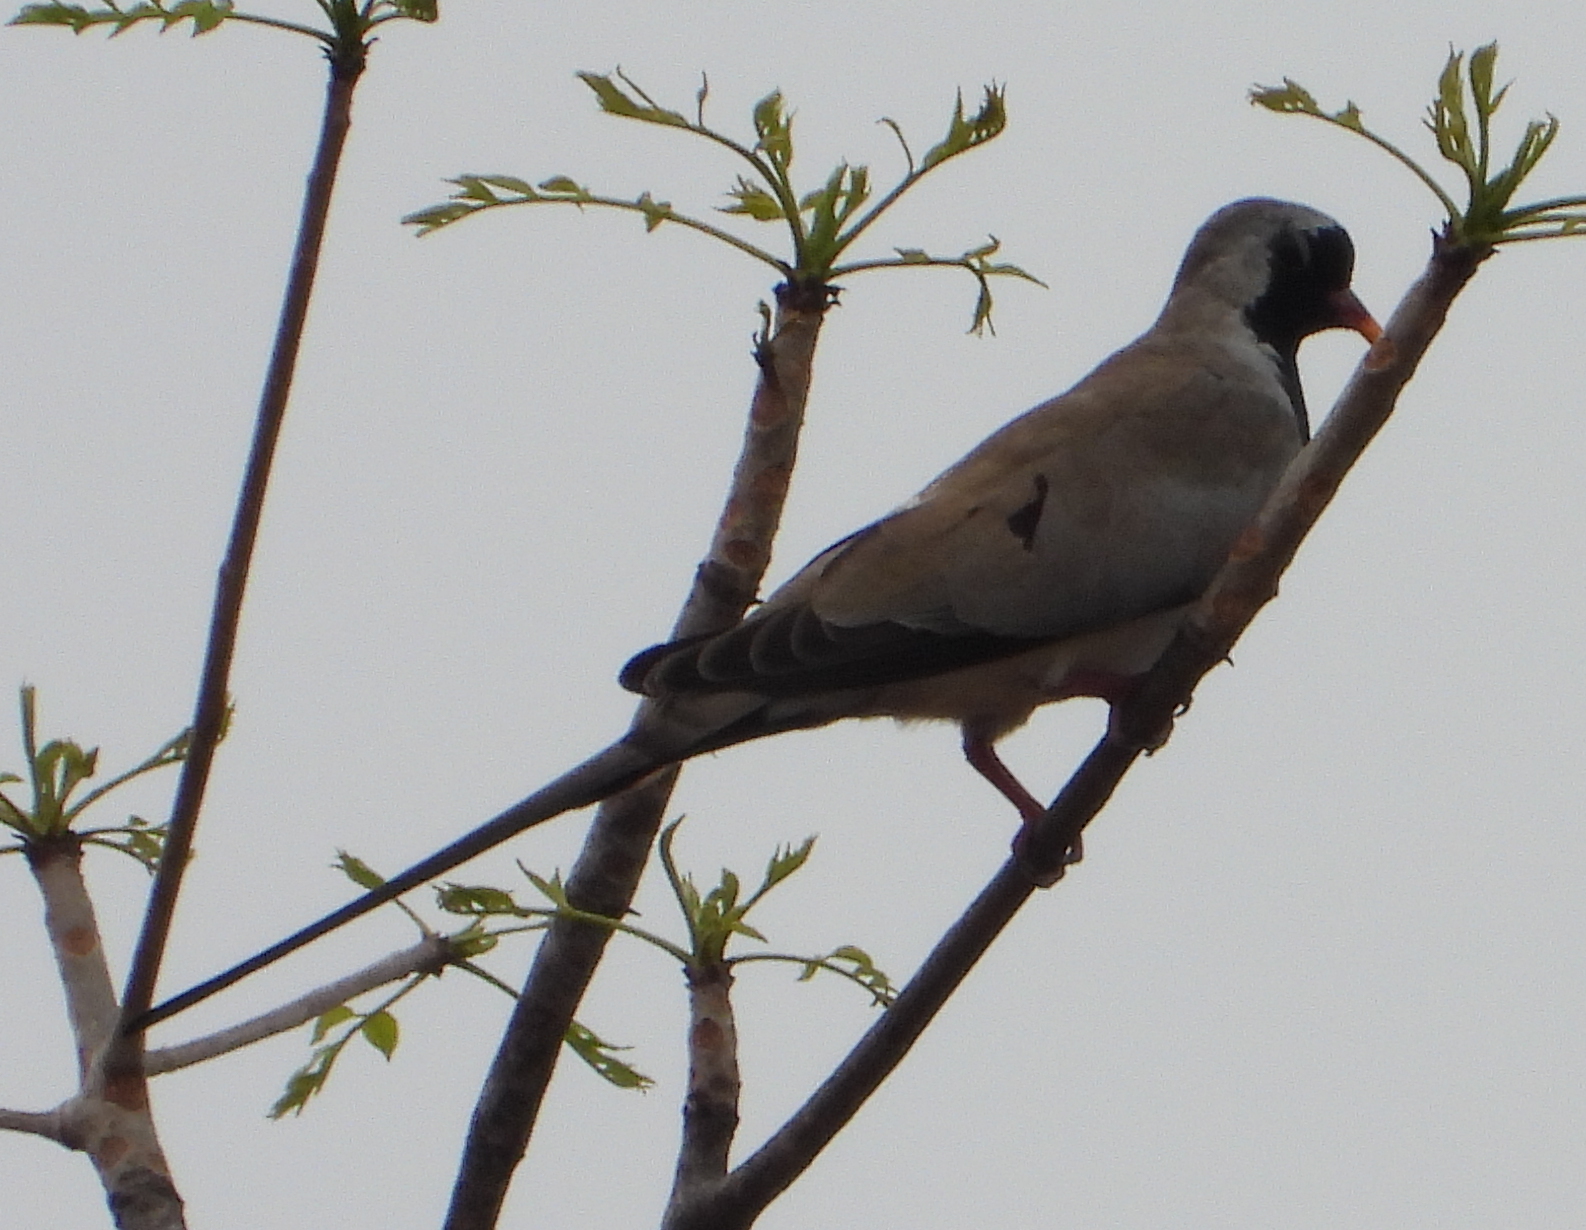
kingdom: Animalia
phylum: Chordata
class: Aves
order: Columbiformes
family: Columbidae
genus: Oena
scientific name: Oena capensis
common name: Namaqua dove
